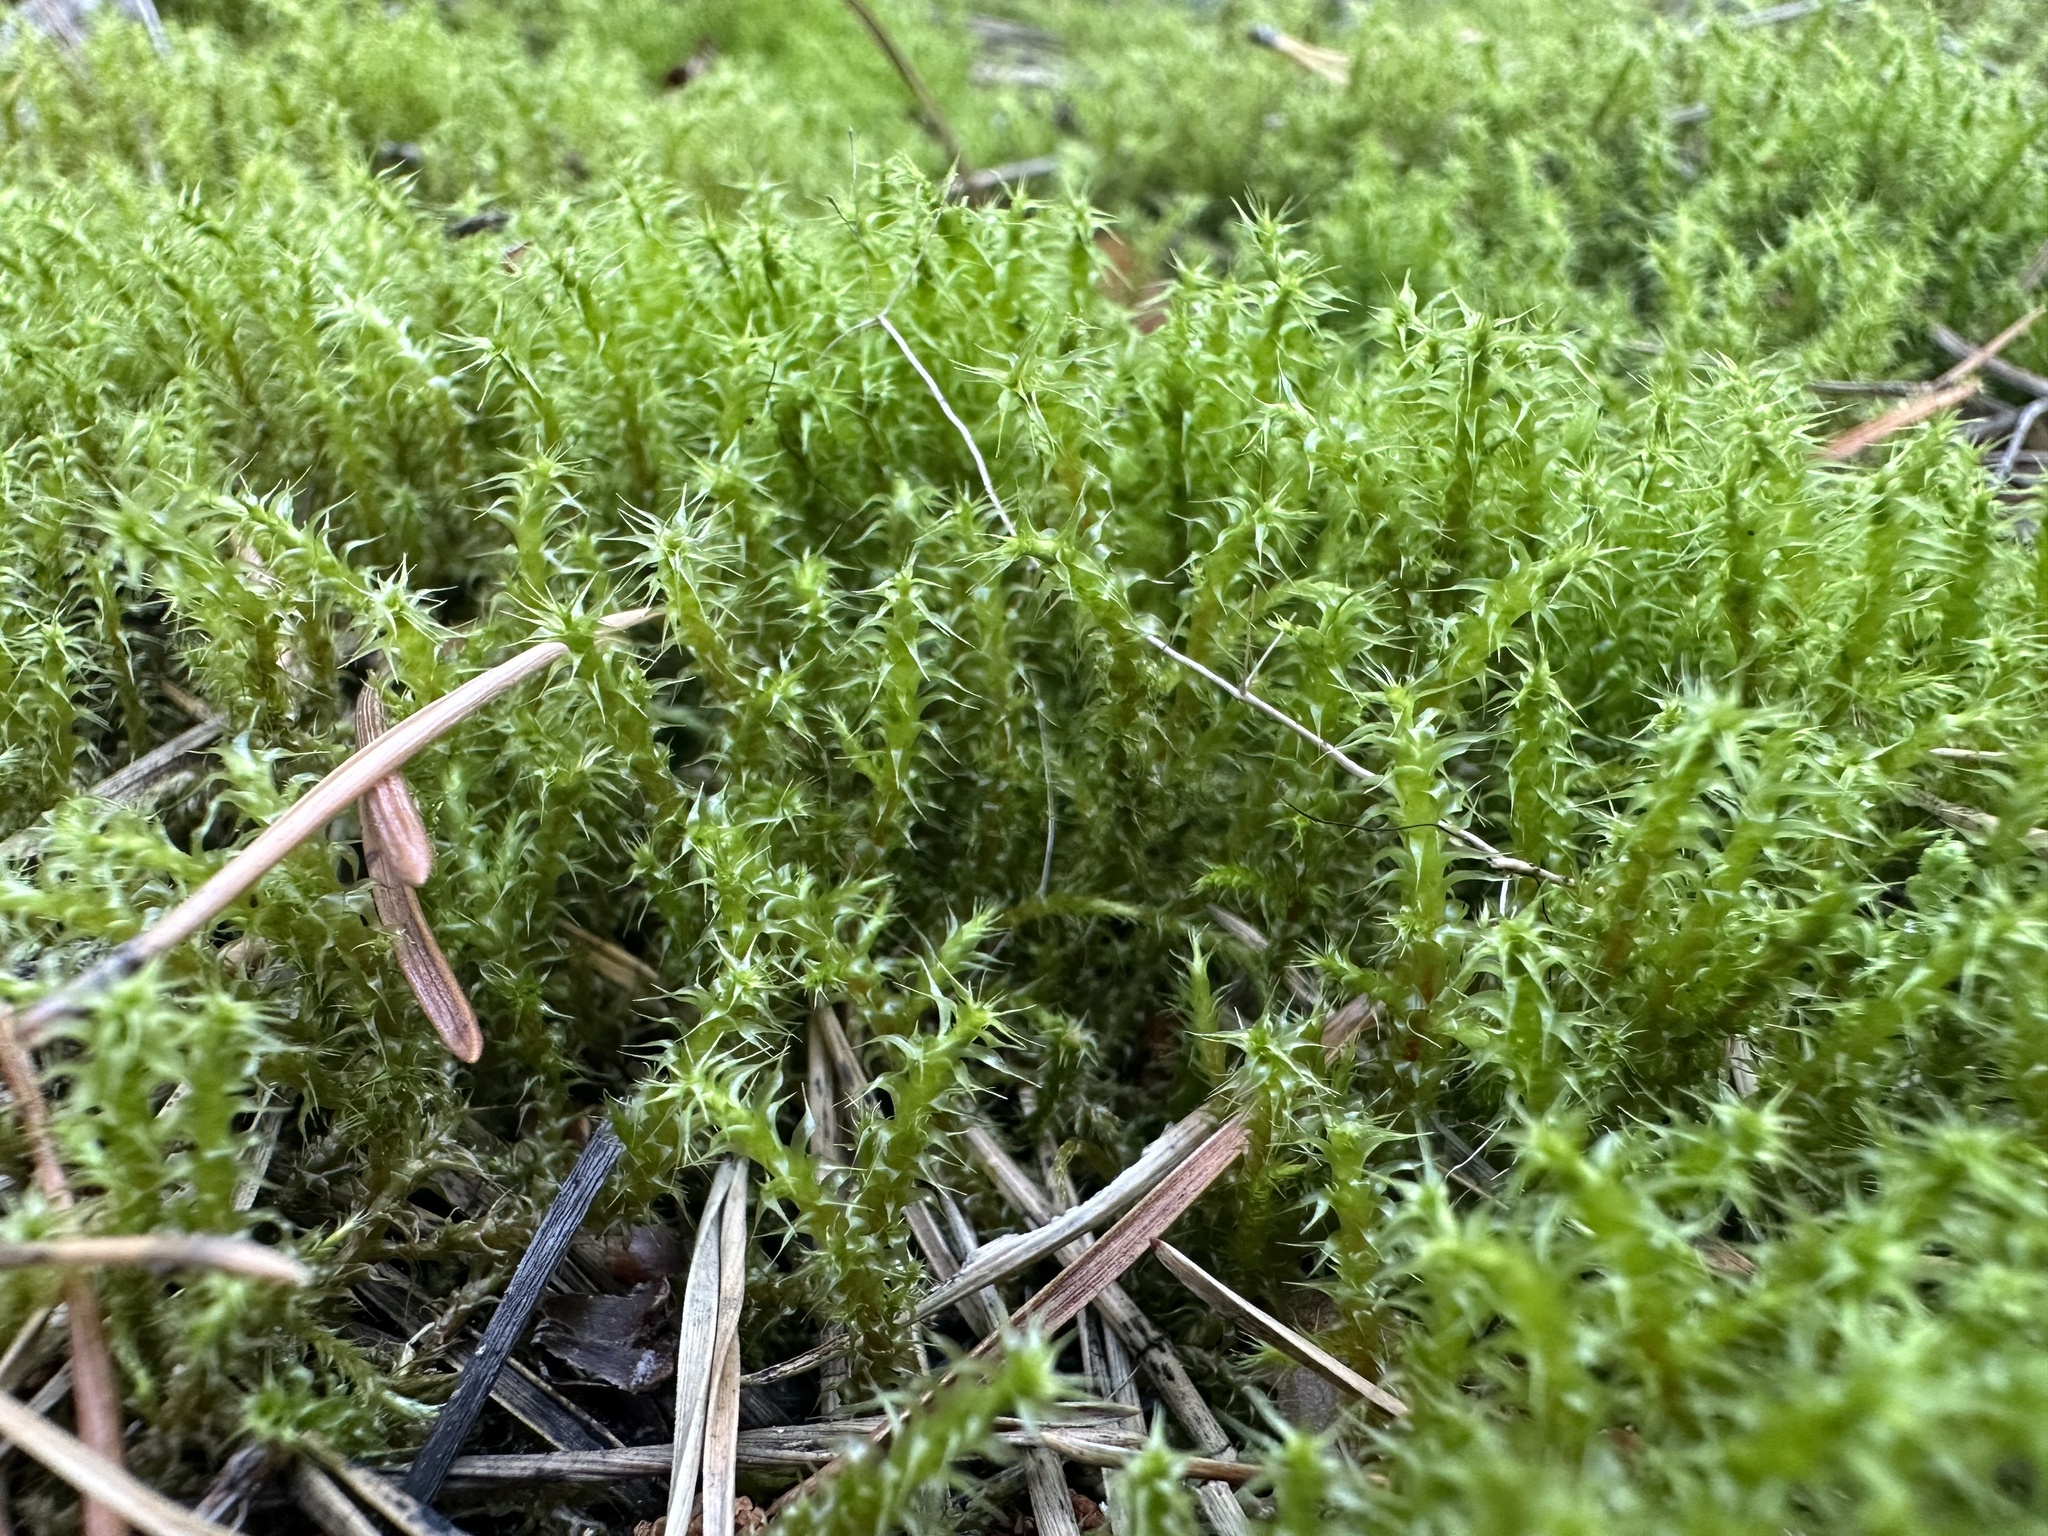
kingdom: Plantae
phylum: Bryophyta
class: Bryopsida
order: Hypnales
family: Hylocomiaceae
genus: Rhytidiadelphus
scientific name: Rhytidiadelphus squarrosus
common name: Springy turf-moss
